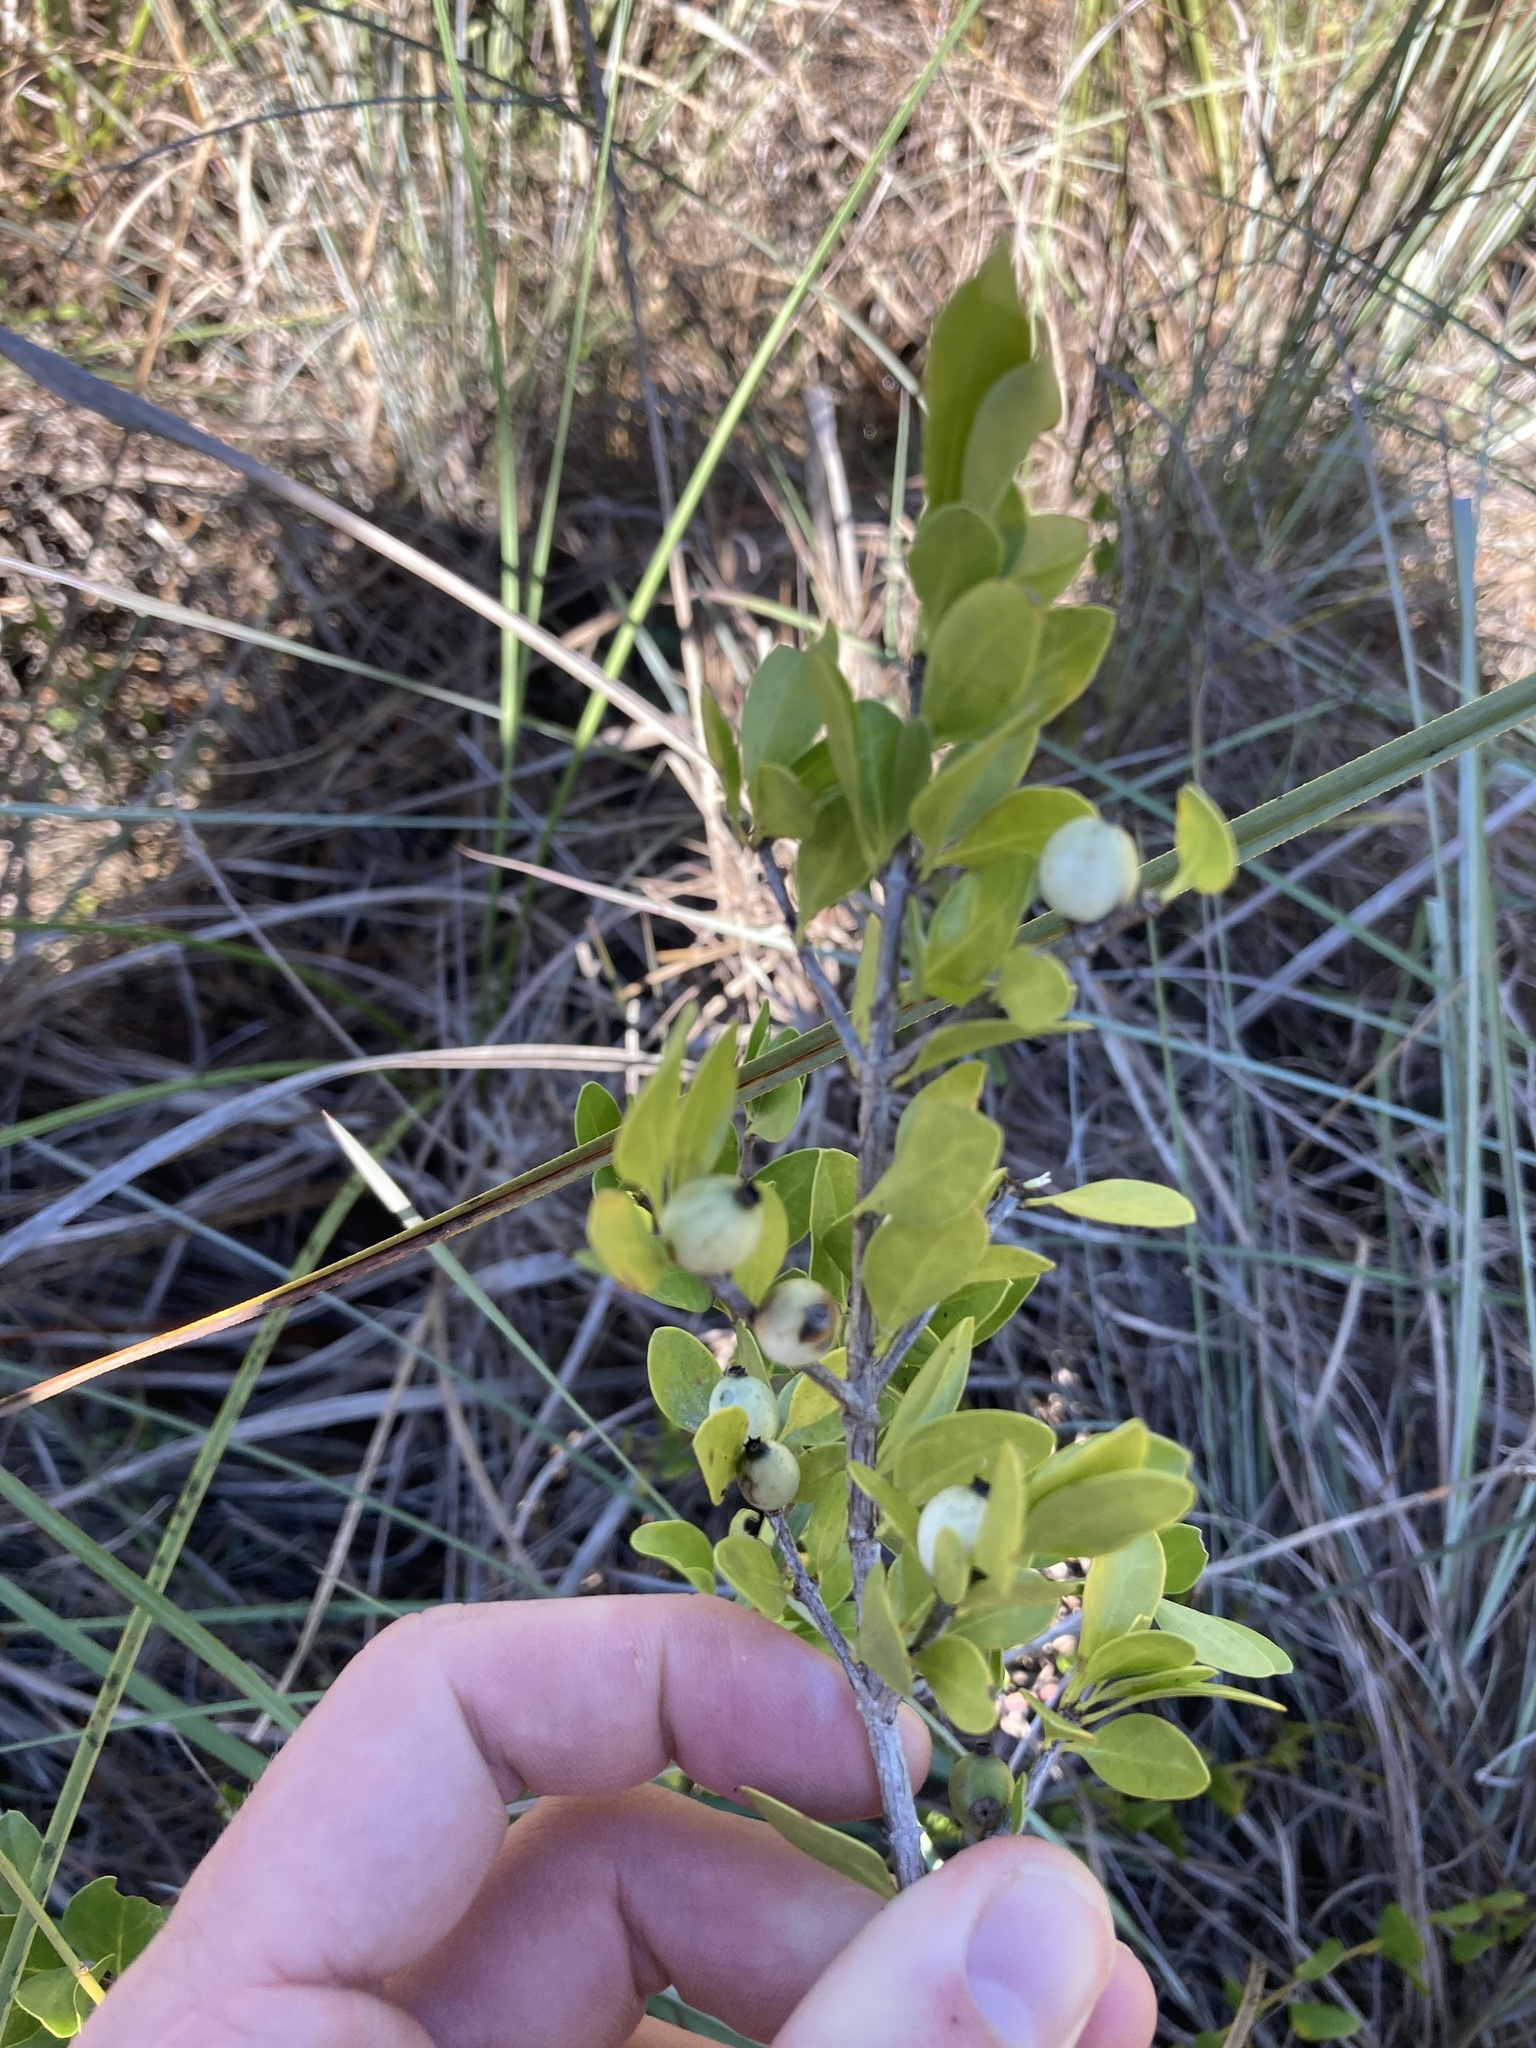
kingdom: Plantae
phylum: Tracheophyta
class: Magnoliopsida
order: Gentianales
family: Rubiaceae
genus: Randia
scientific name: Randia aculeata
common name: Inkberry
